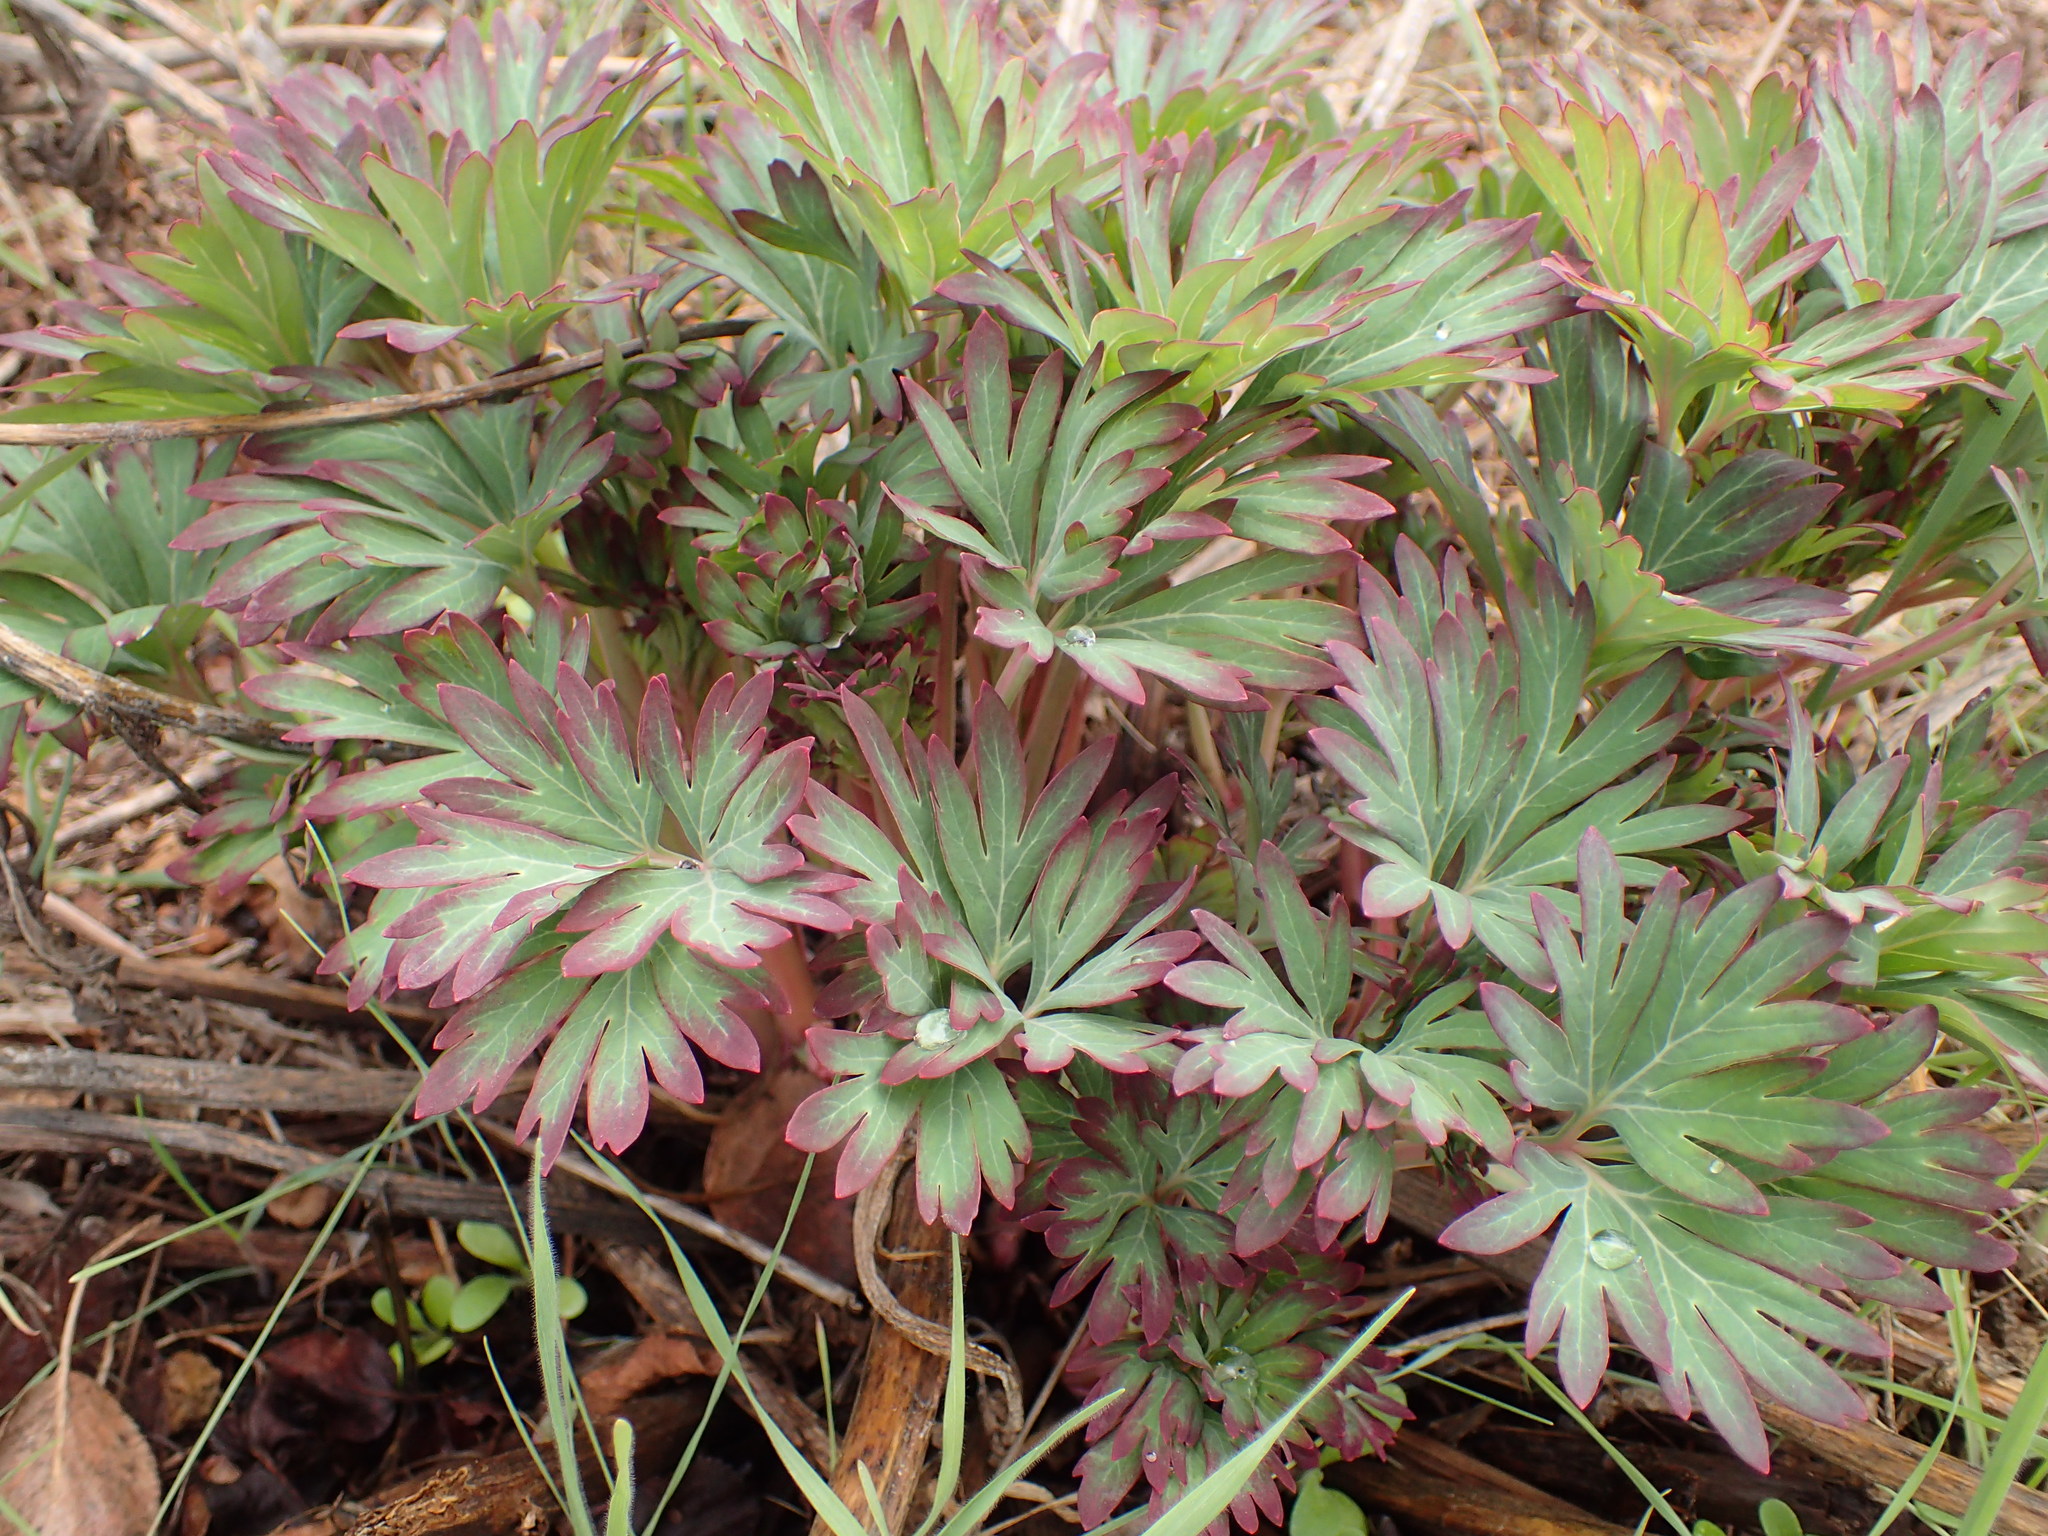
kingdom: Plantae
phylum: Tracheophyta
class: Magnoliopsida
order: Saxifragales
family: Paeoniaceae
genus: Paeonia
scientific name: Paeonia californica
